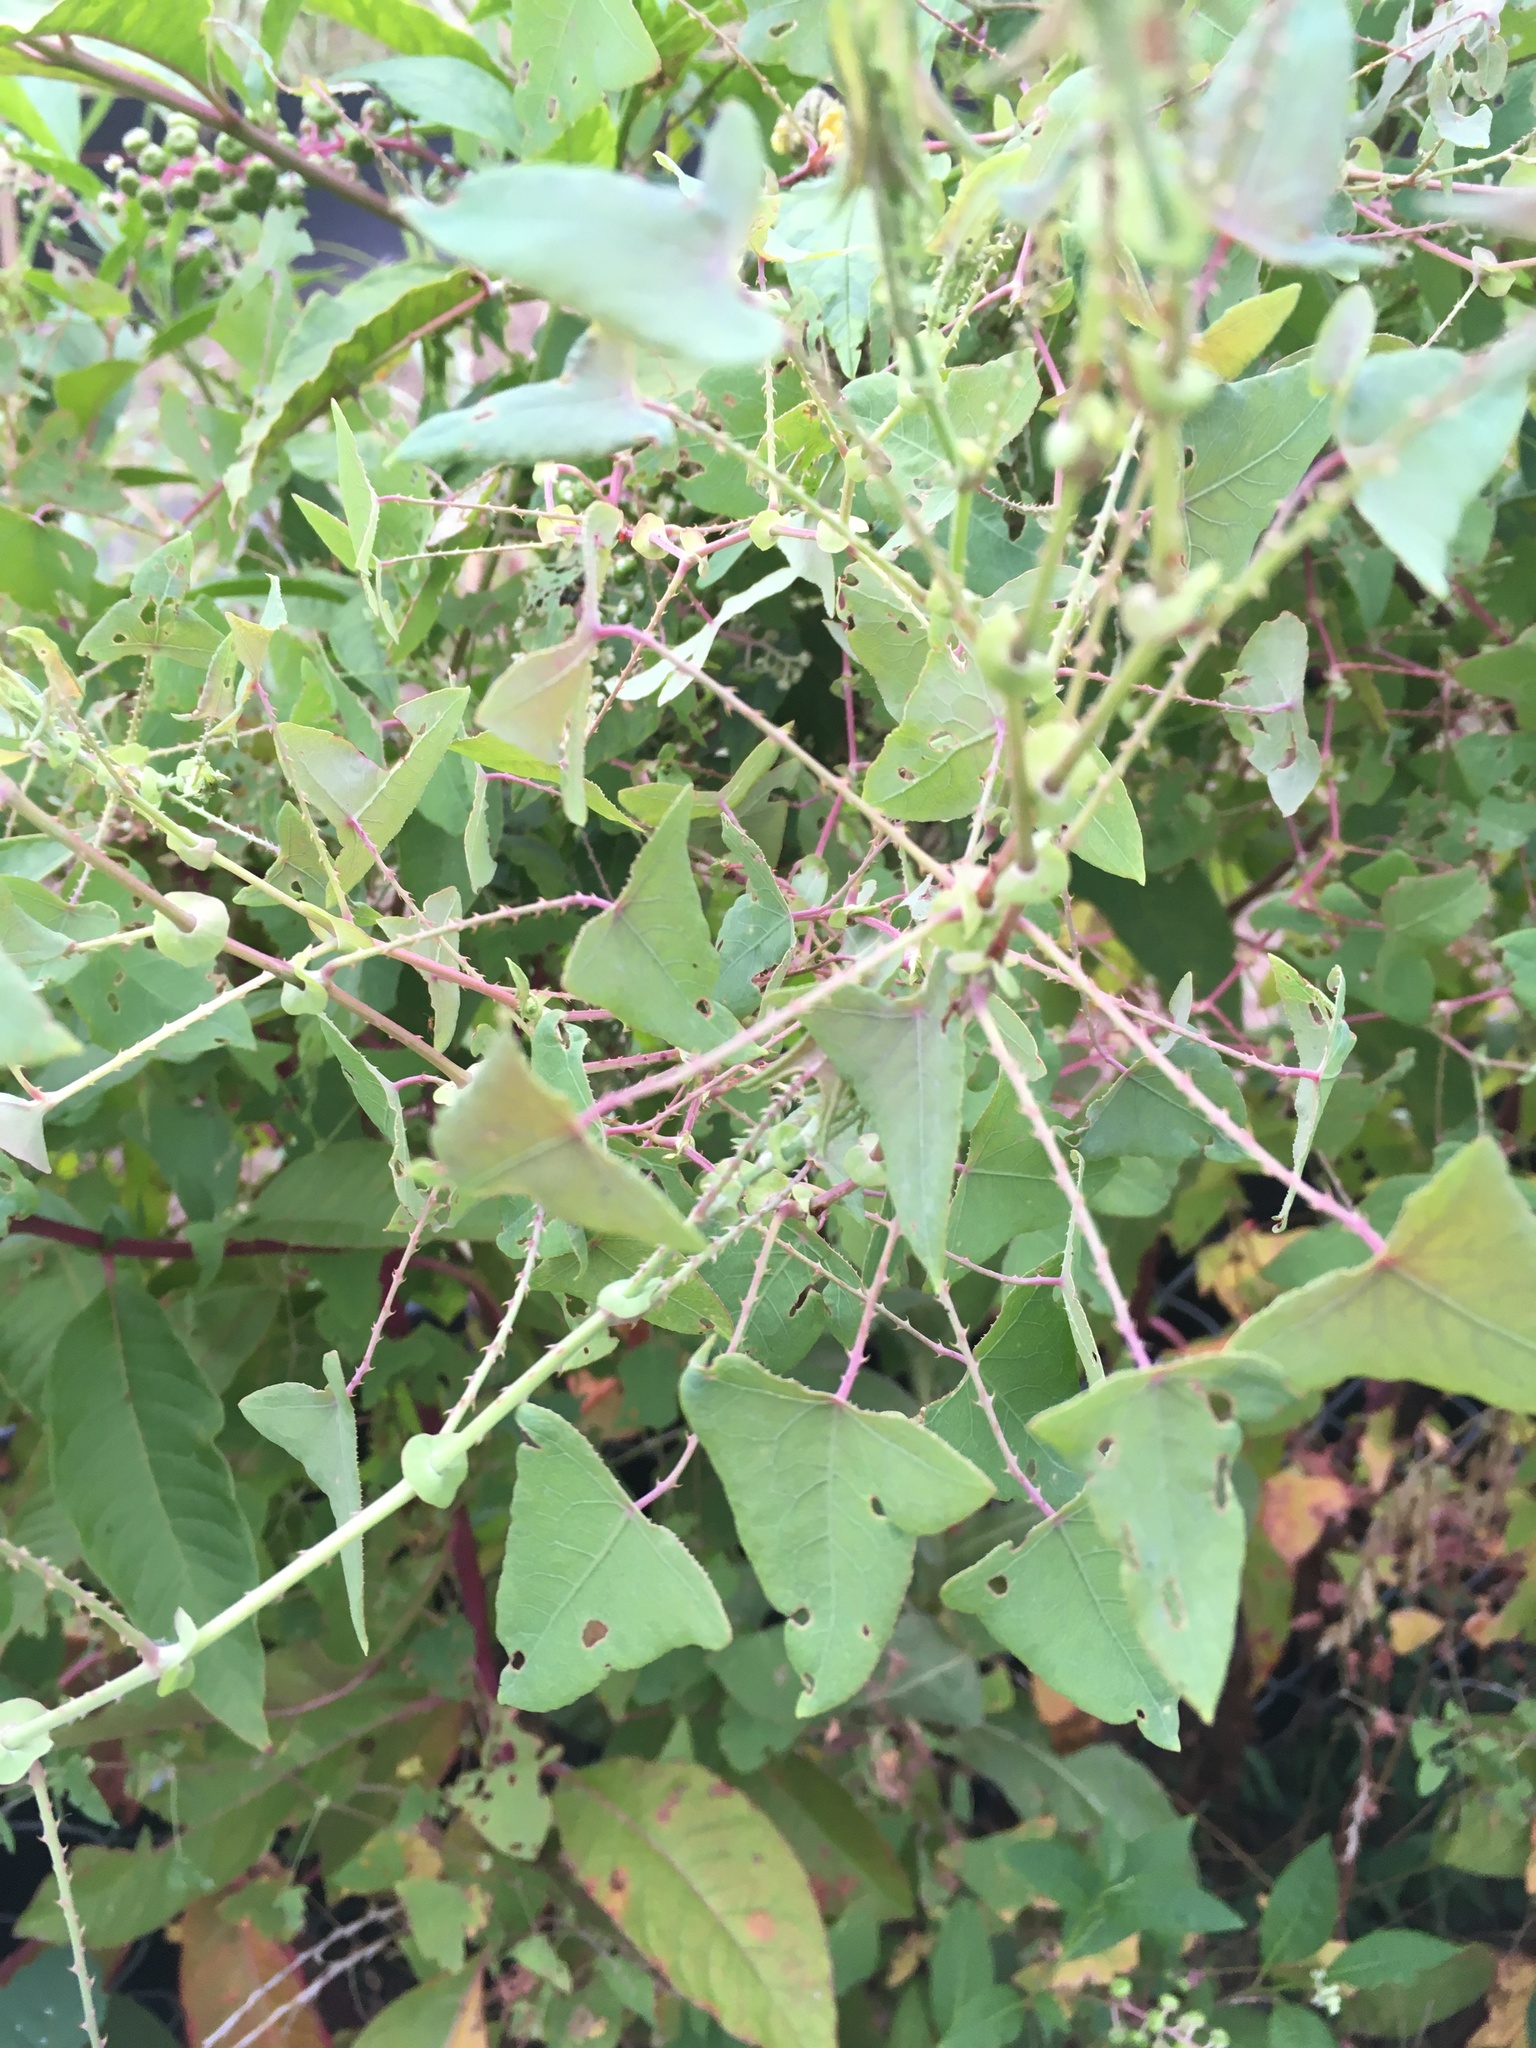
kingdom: Plantae
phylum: Tracheophyta
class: Magnoliopsida
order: Caryophyllales
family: Polygonaceae
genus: Persicaria
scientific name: Persicaria perfoliata
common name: Asiatic tearthumb
